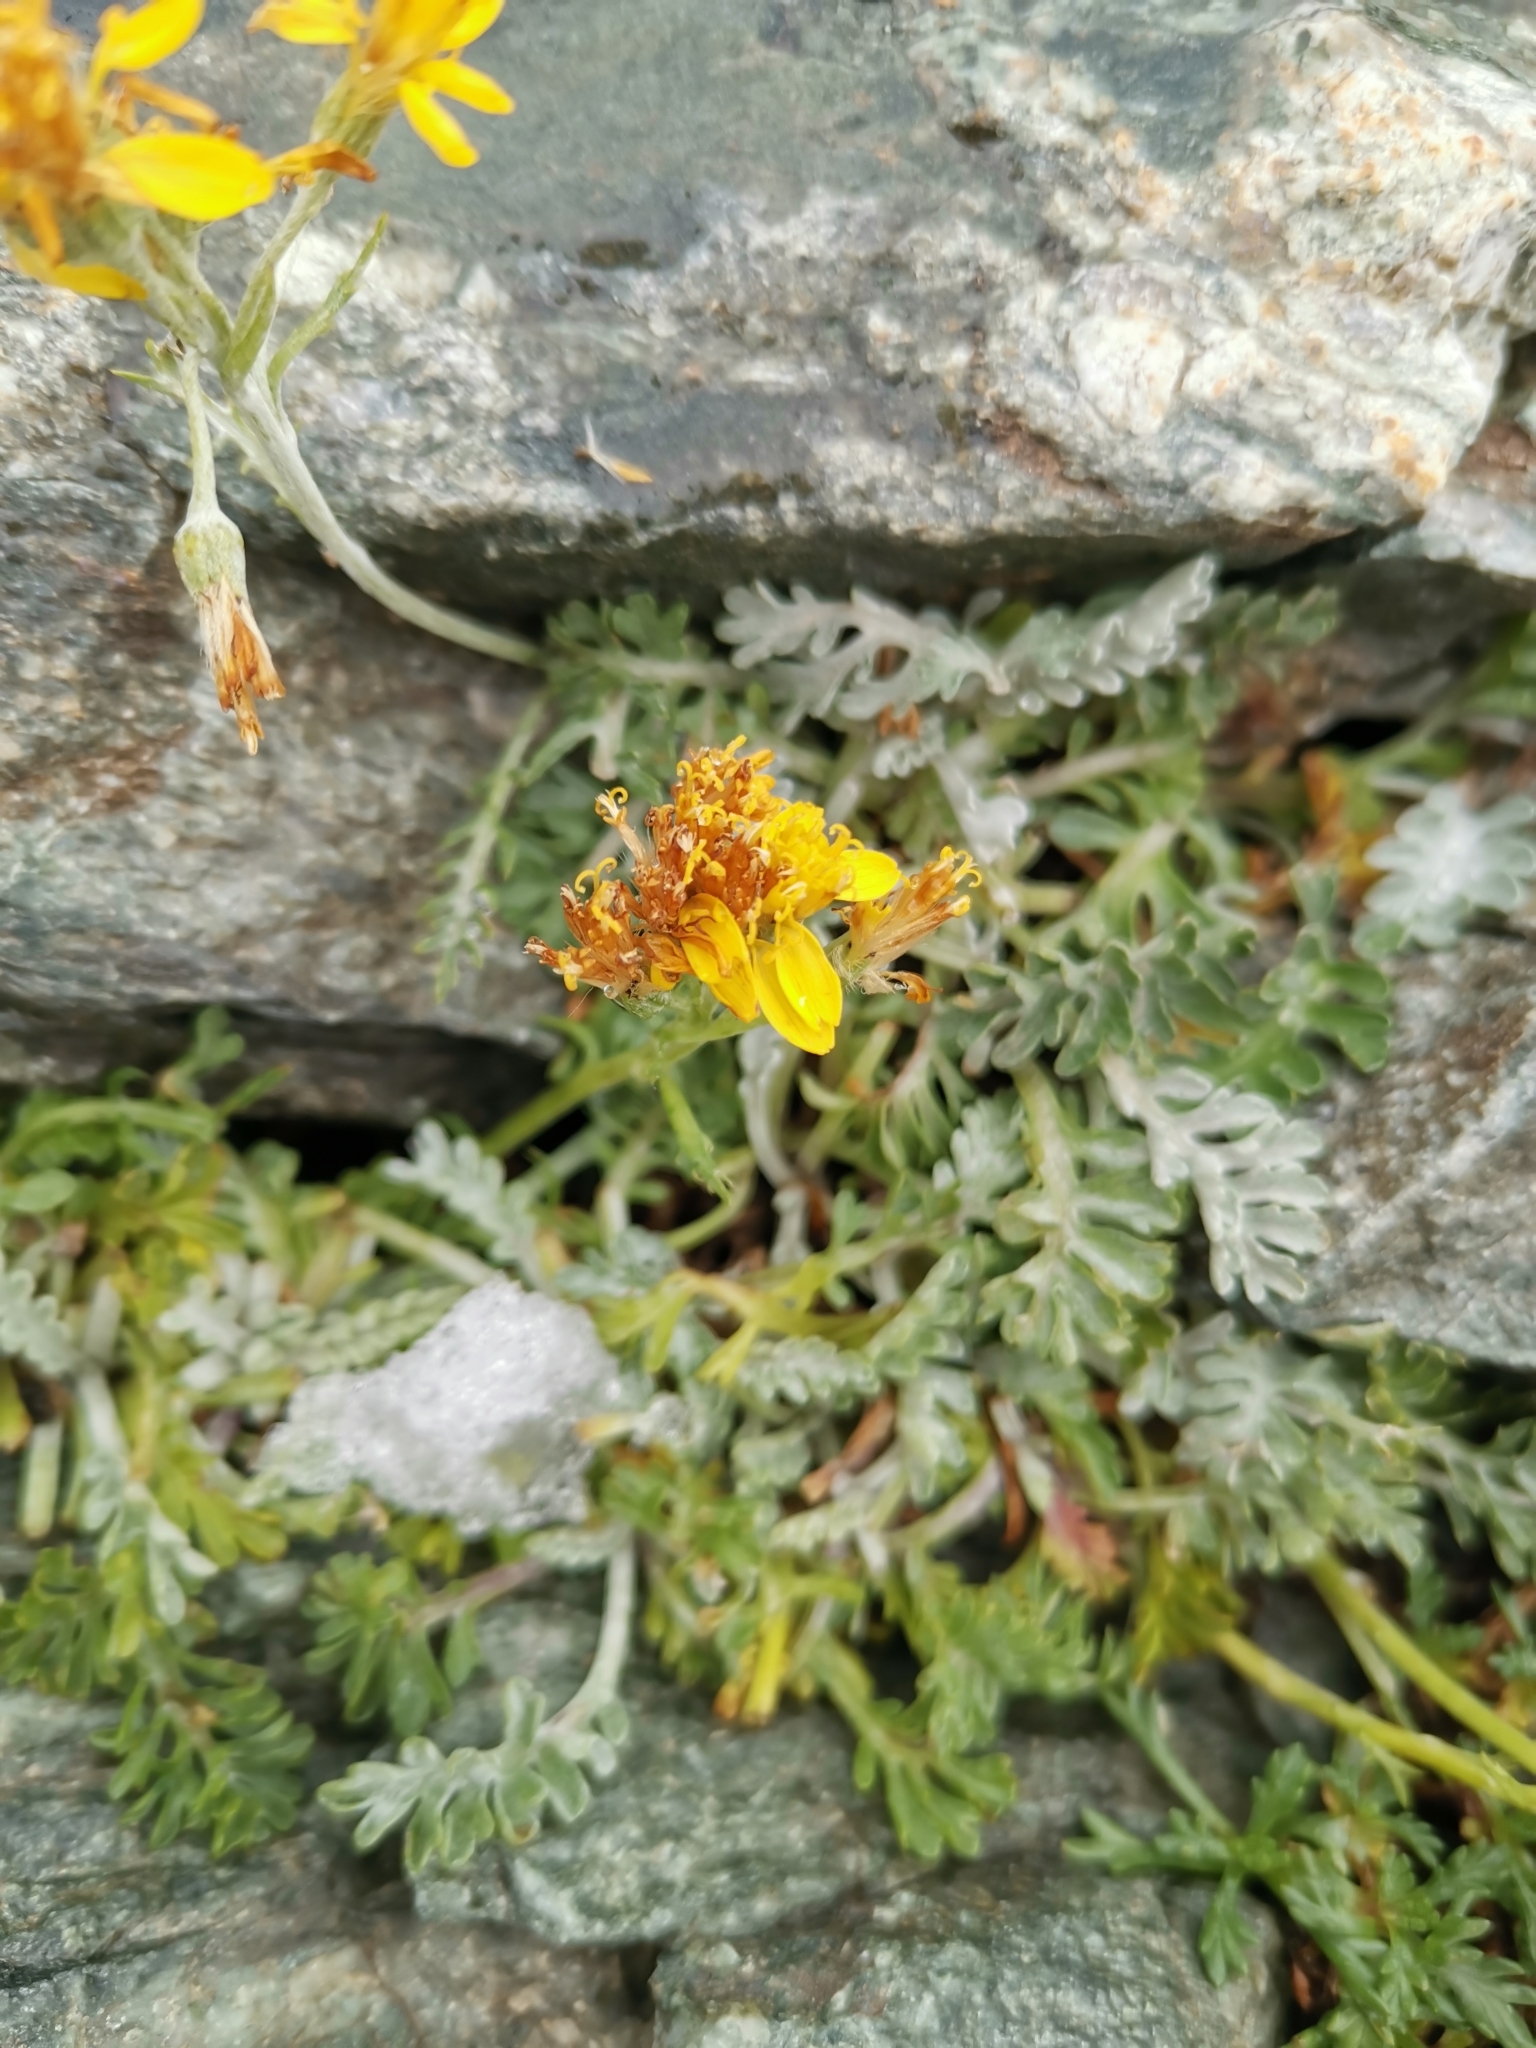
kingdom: Plantae
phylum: Tracheophyta
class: Magnoliopsida
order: Asterales
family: Asteraceae
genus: Jacobaea
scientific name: Jacobaea incana
